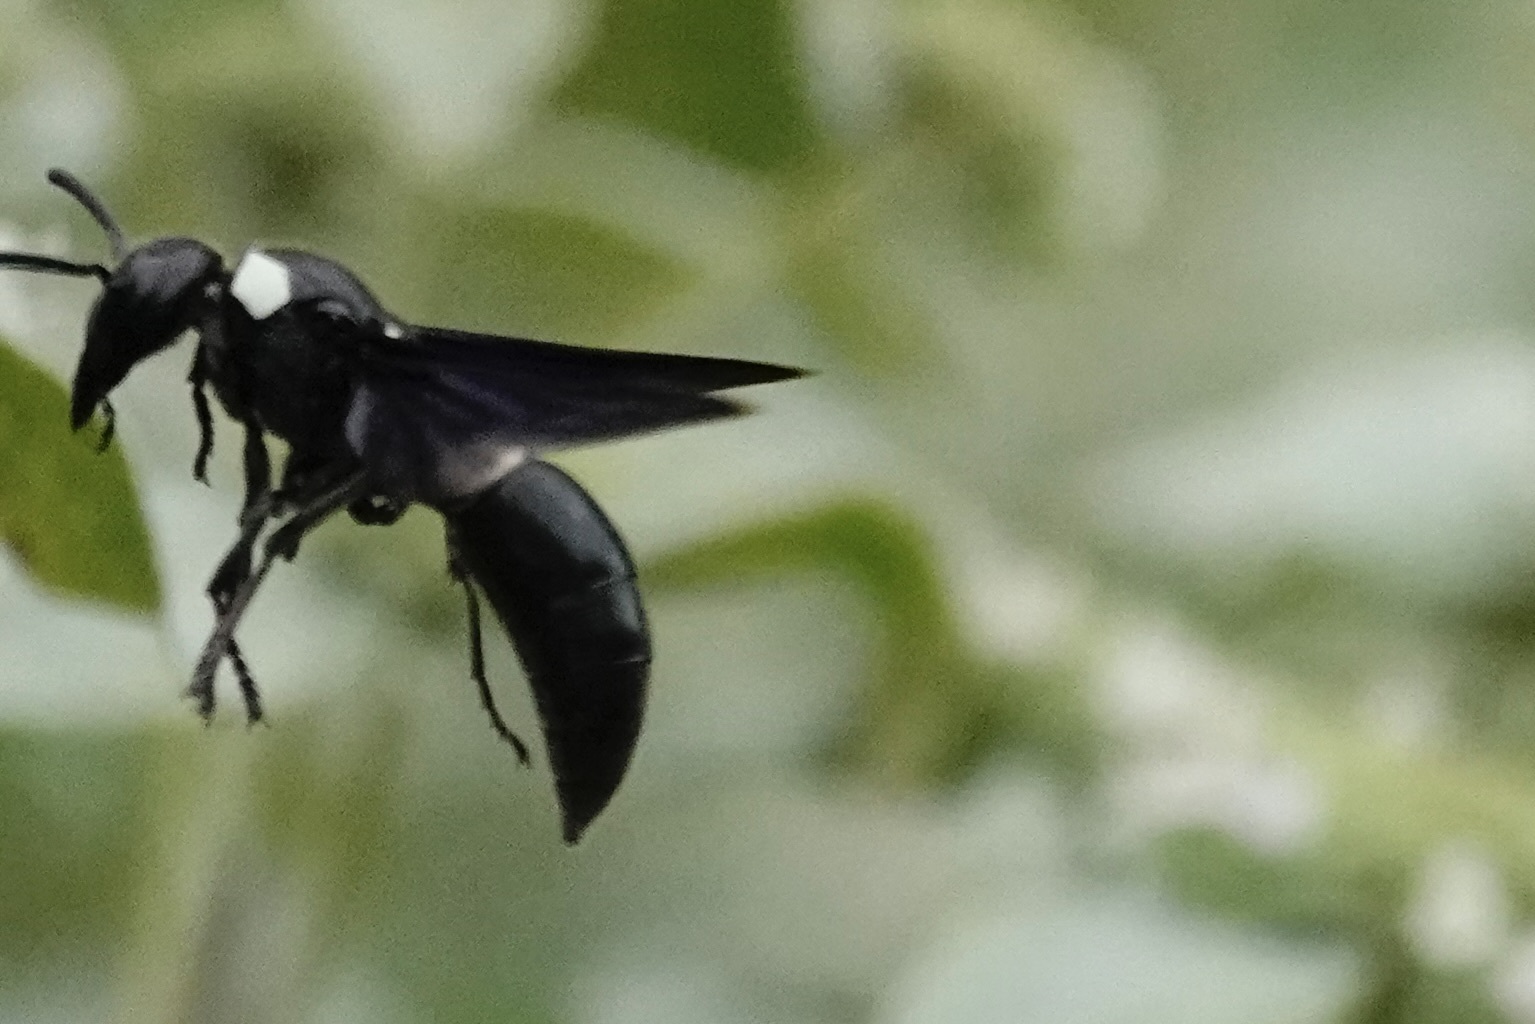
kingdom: Animalia
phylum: Arthropoda
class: Insecta
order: Hymenoptera
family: Eumenidae
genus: Monobia
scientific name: Monobia quadridens
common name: Four-toothed mason wasp
